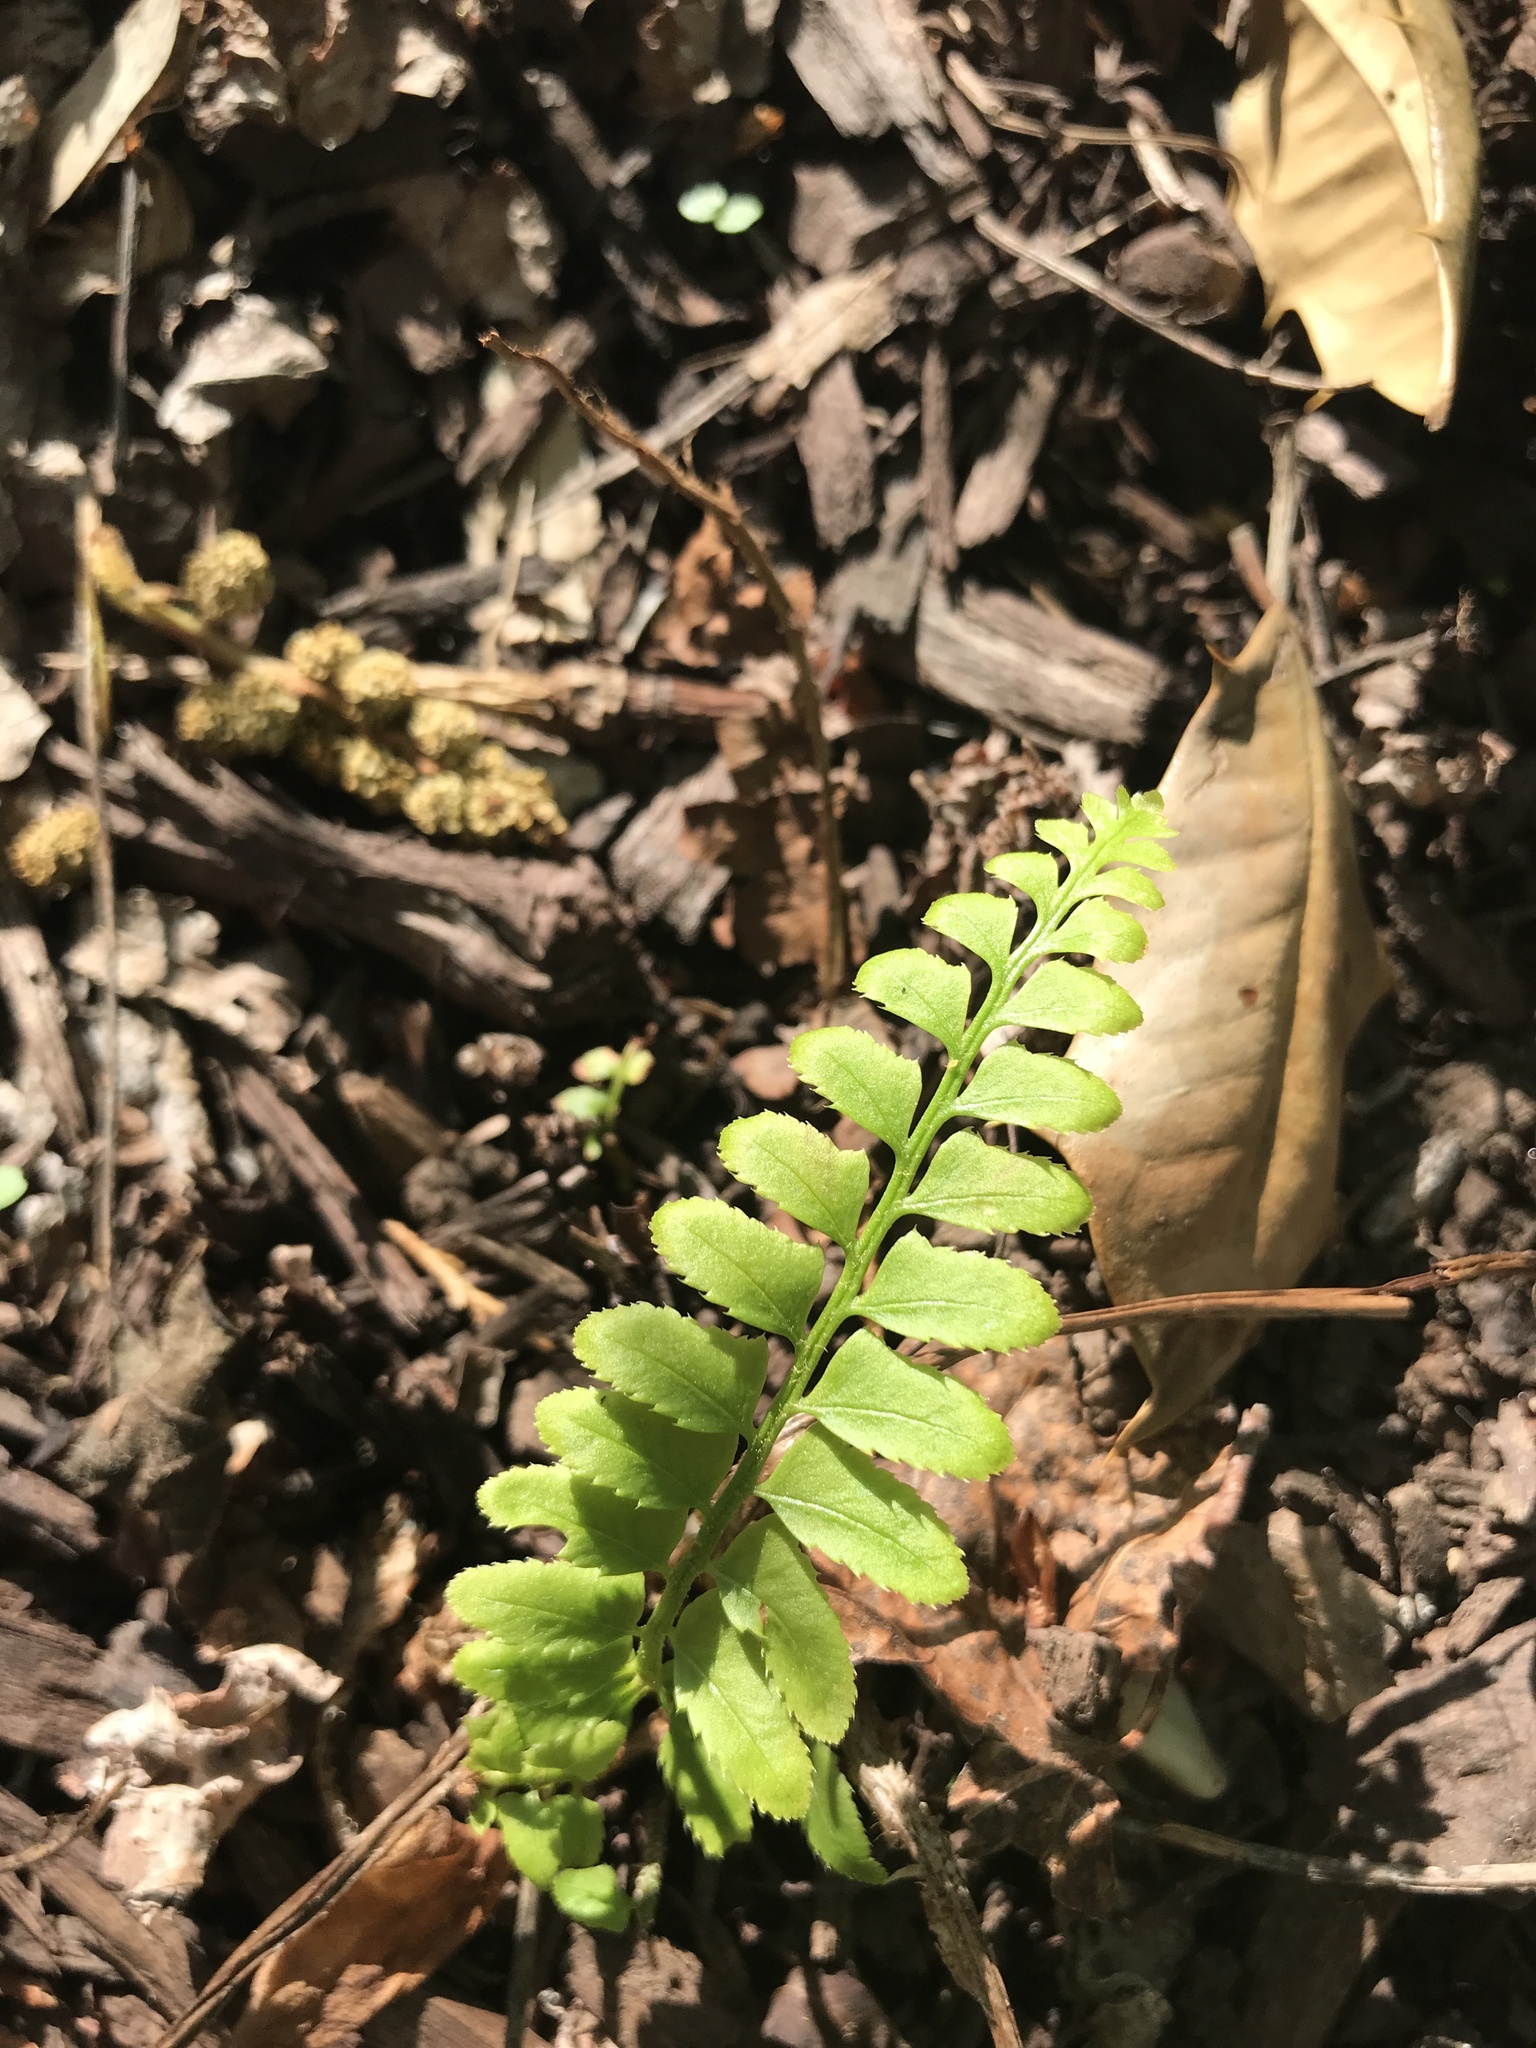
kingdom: Plantae
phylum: Tracheophyta
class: Polypodiopsida
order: Polypodiales
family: Dryopteridaceae
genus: Polystichum
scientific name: Polystichum acrostichoides
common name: Christmas fern
